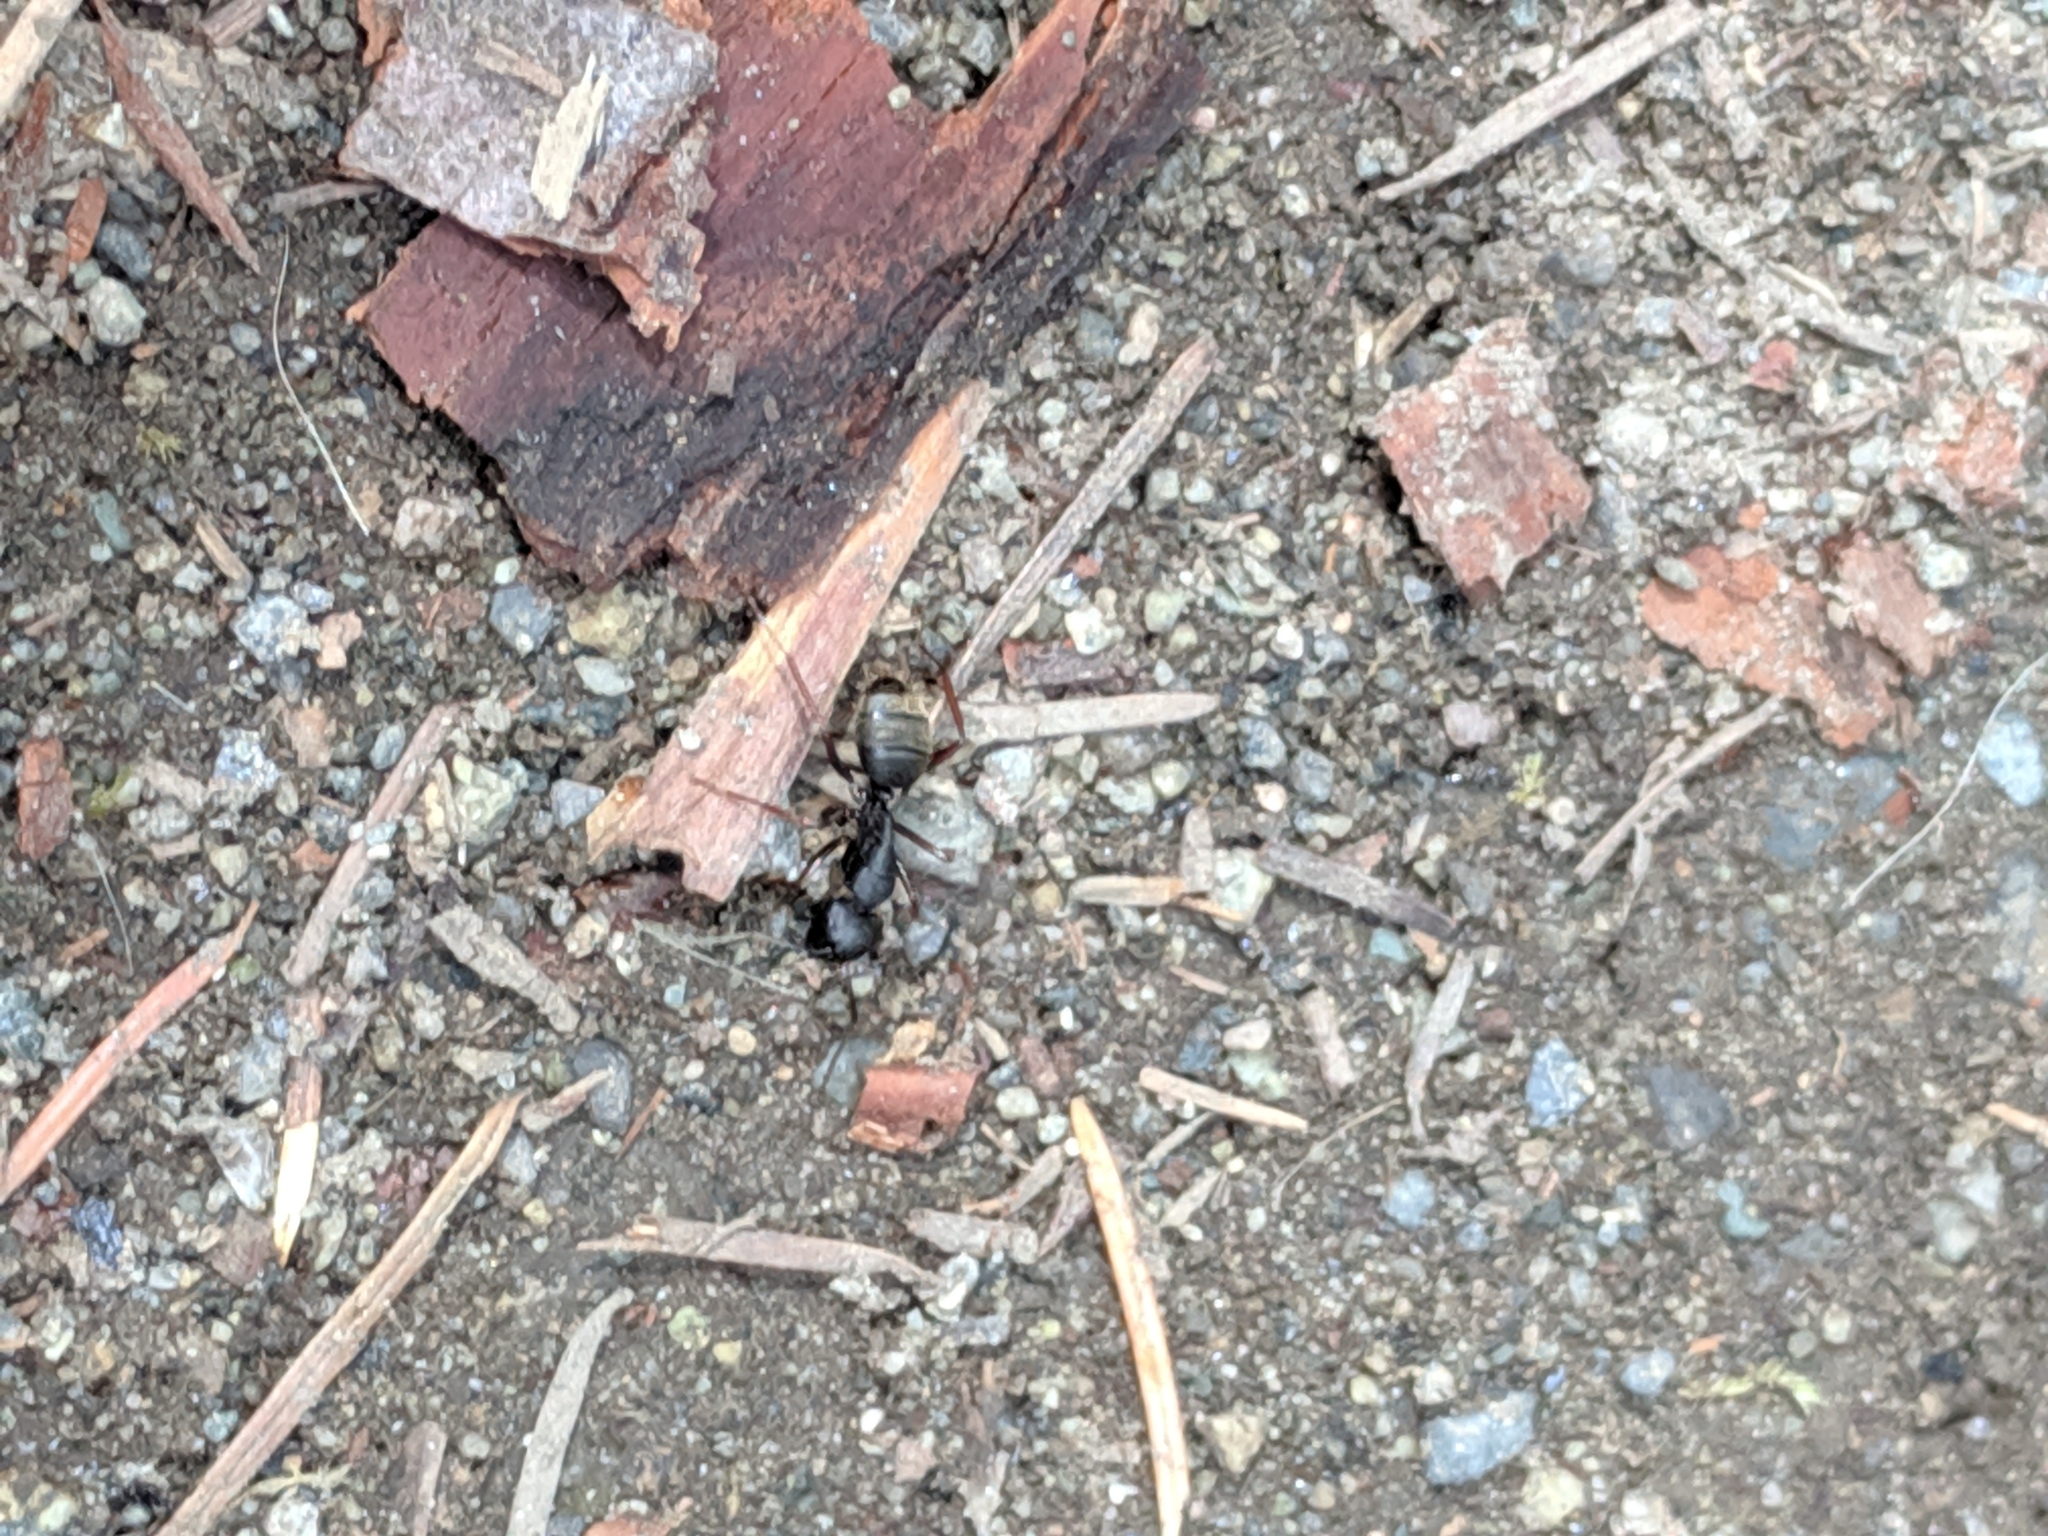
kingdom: Animalia
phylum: Arthropoda
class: Insecta
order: Hymenoptera
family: Formicidae
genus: Camponotus
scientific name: Camponotus modoc
